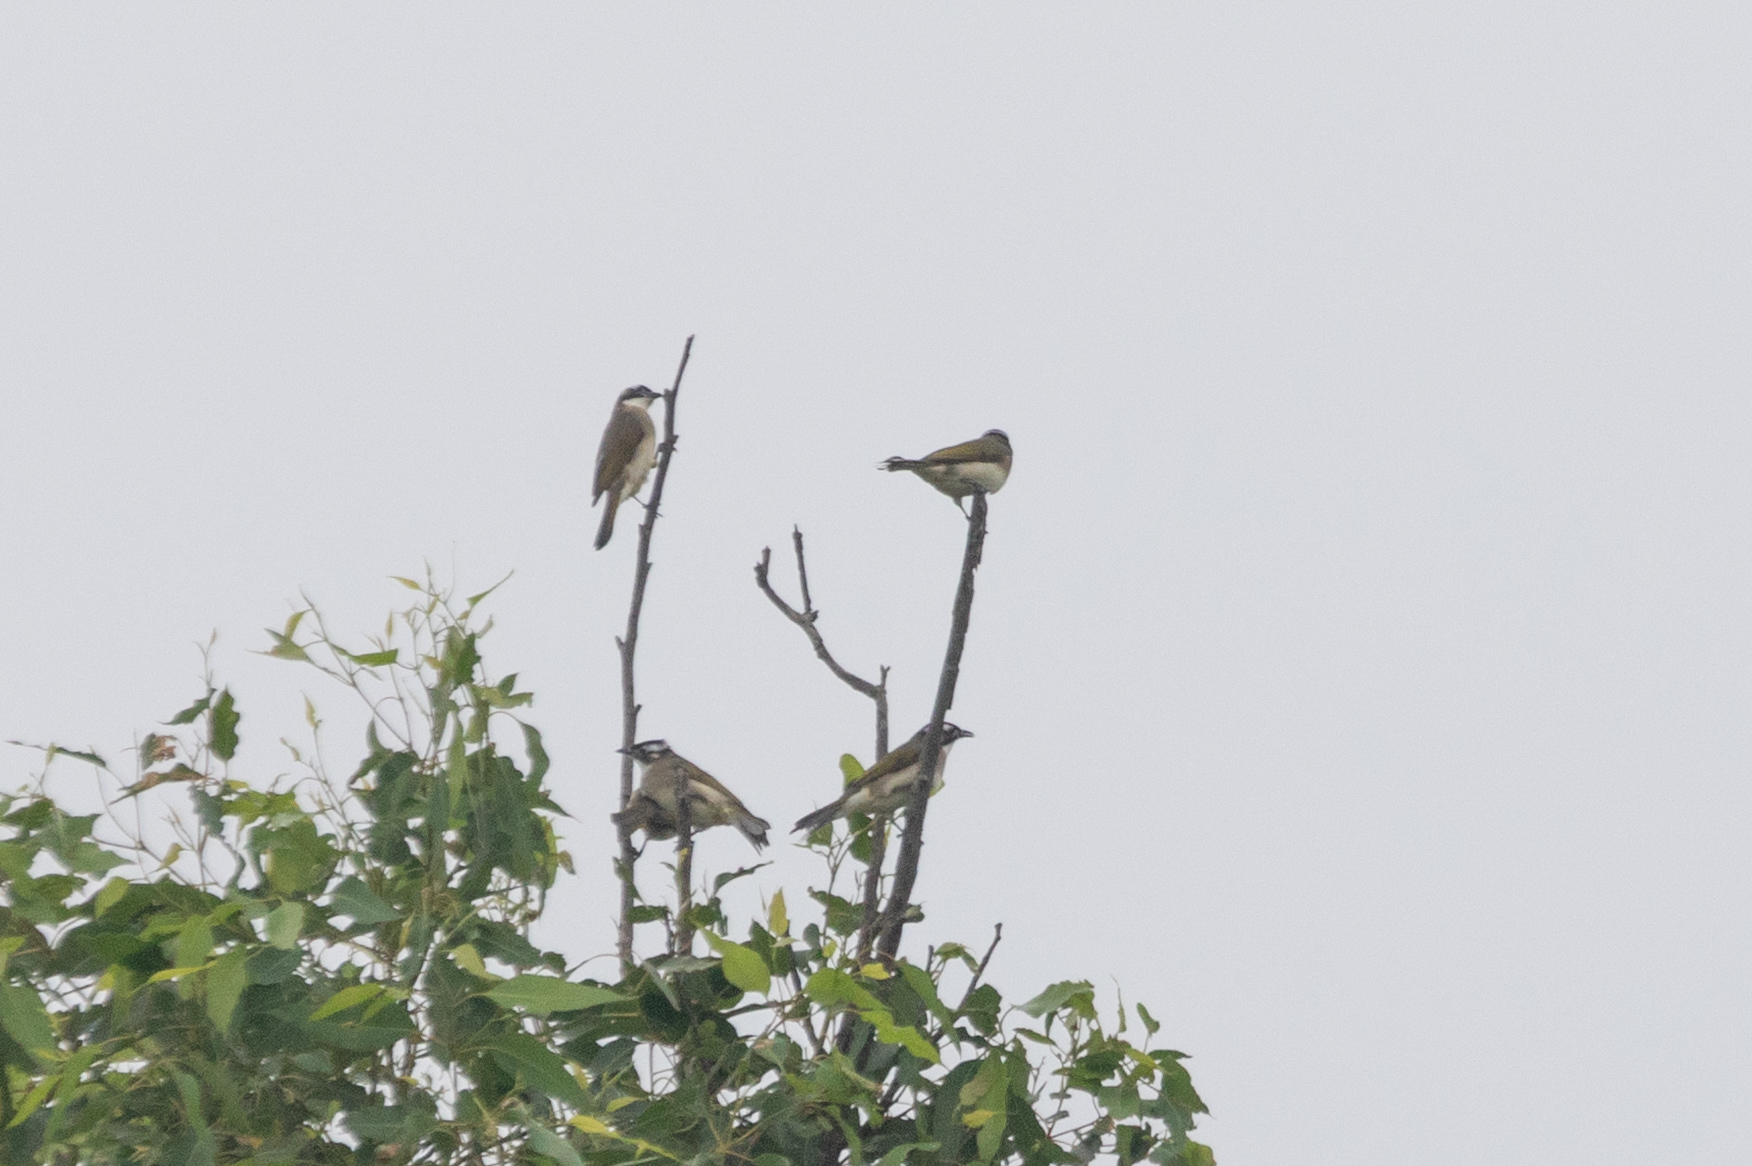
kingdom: Animalia
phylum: Chordata
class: Aves
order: Passeriformes
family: Pycnonotidae
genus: Pycnonotus
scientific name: Pycnonotus sinensis
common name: Light-vented bulbul
